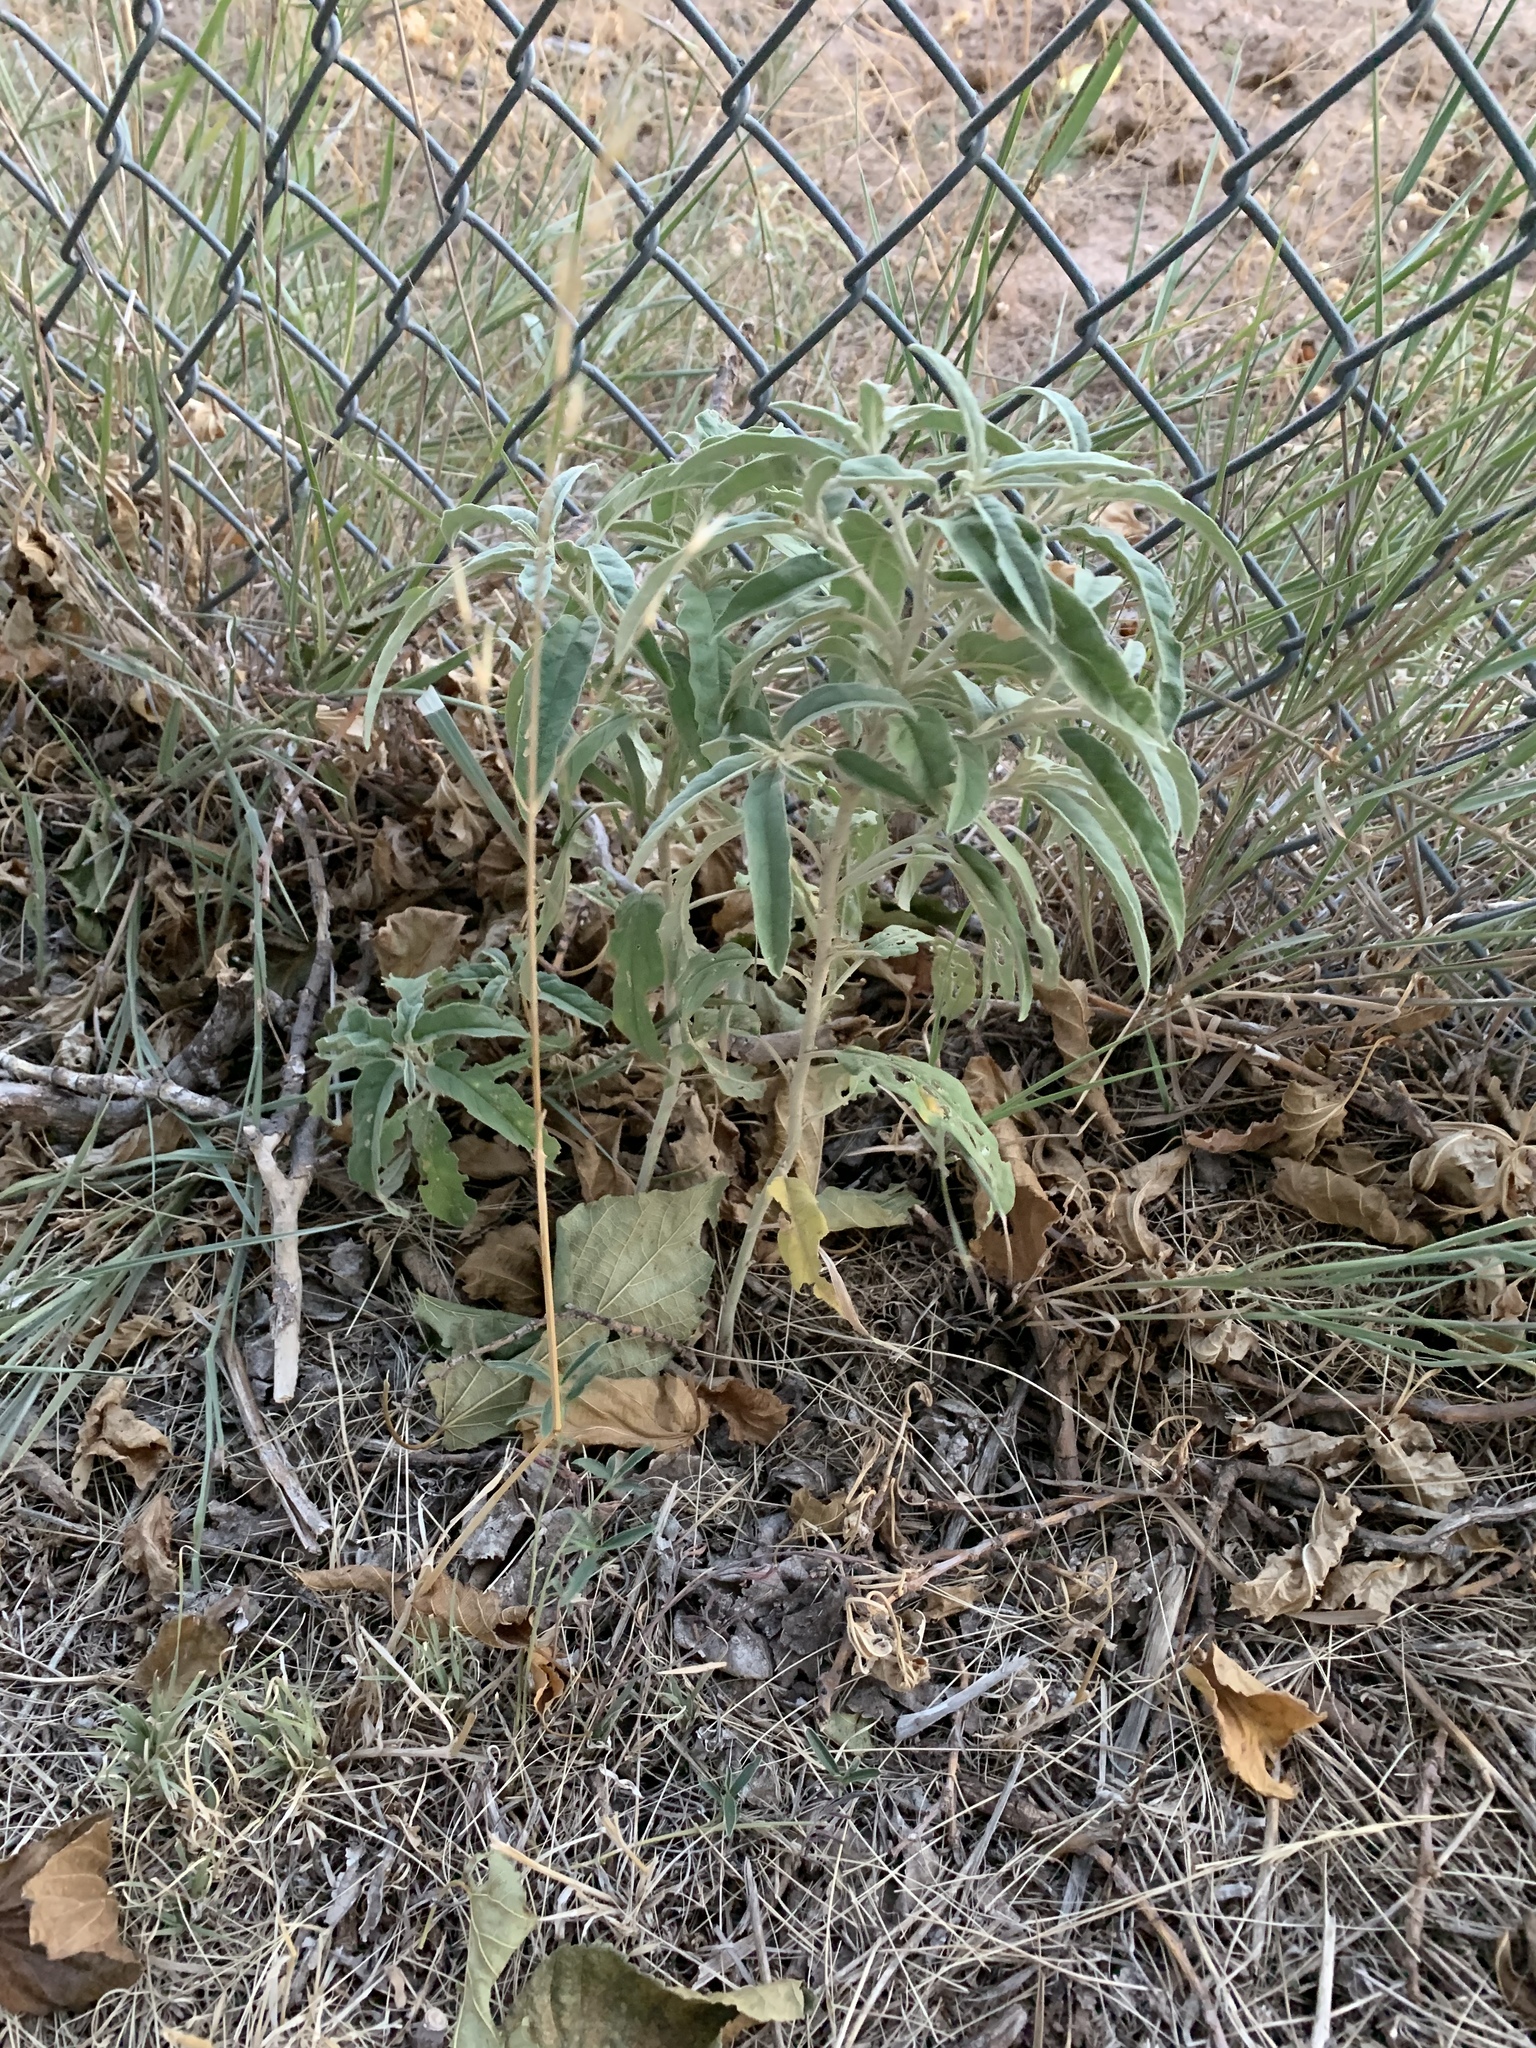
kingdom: Plantae
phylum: Tracheophyta
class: Magnoliopsida
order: Solanales
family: Solanaceae
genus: Solanum
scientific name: Solanum elaeagnifolium
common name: Silverleaf nightshade
